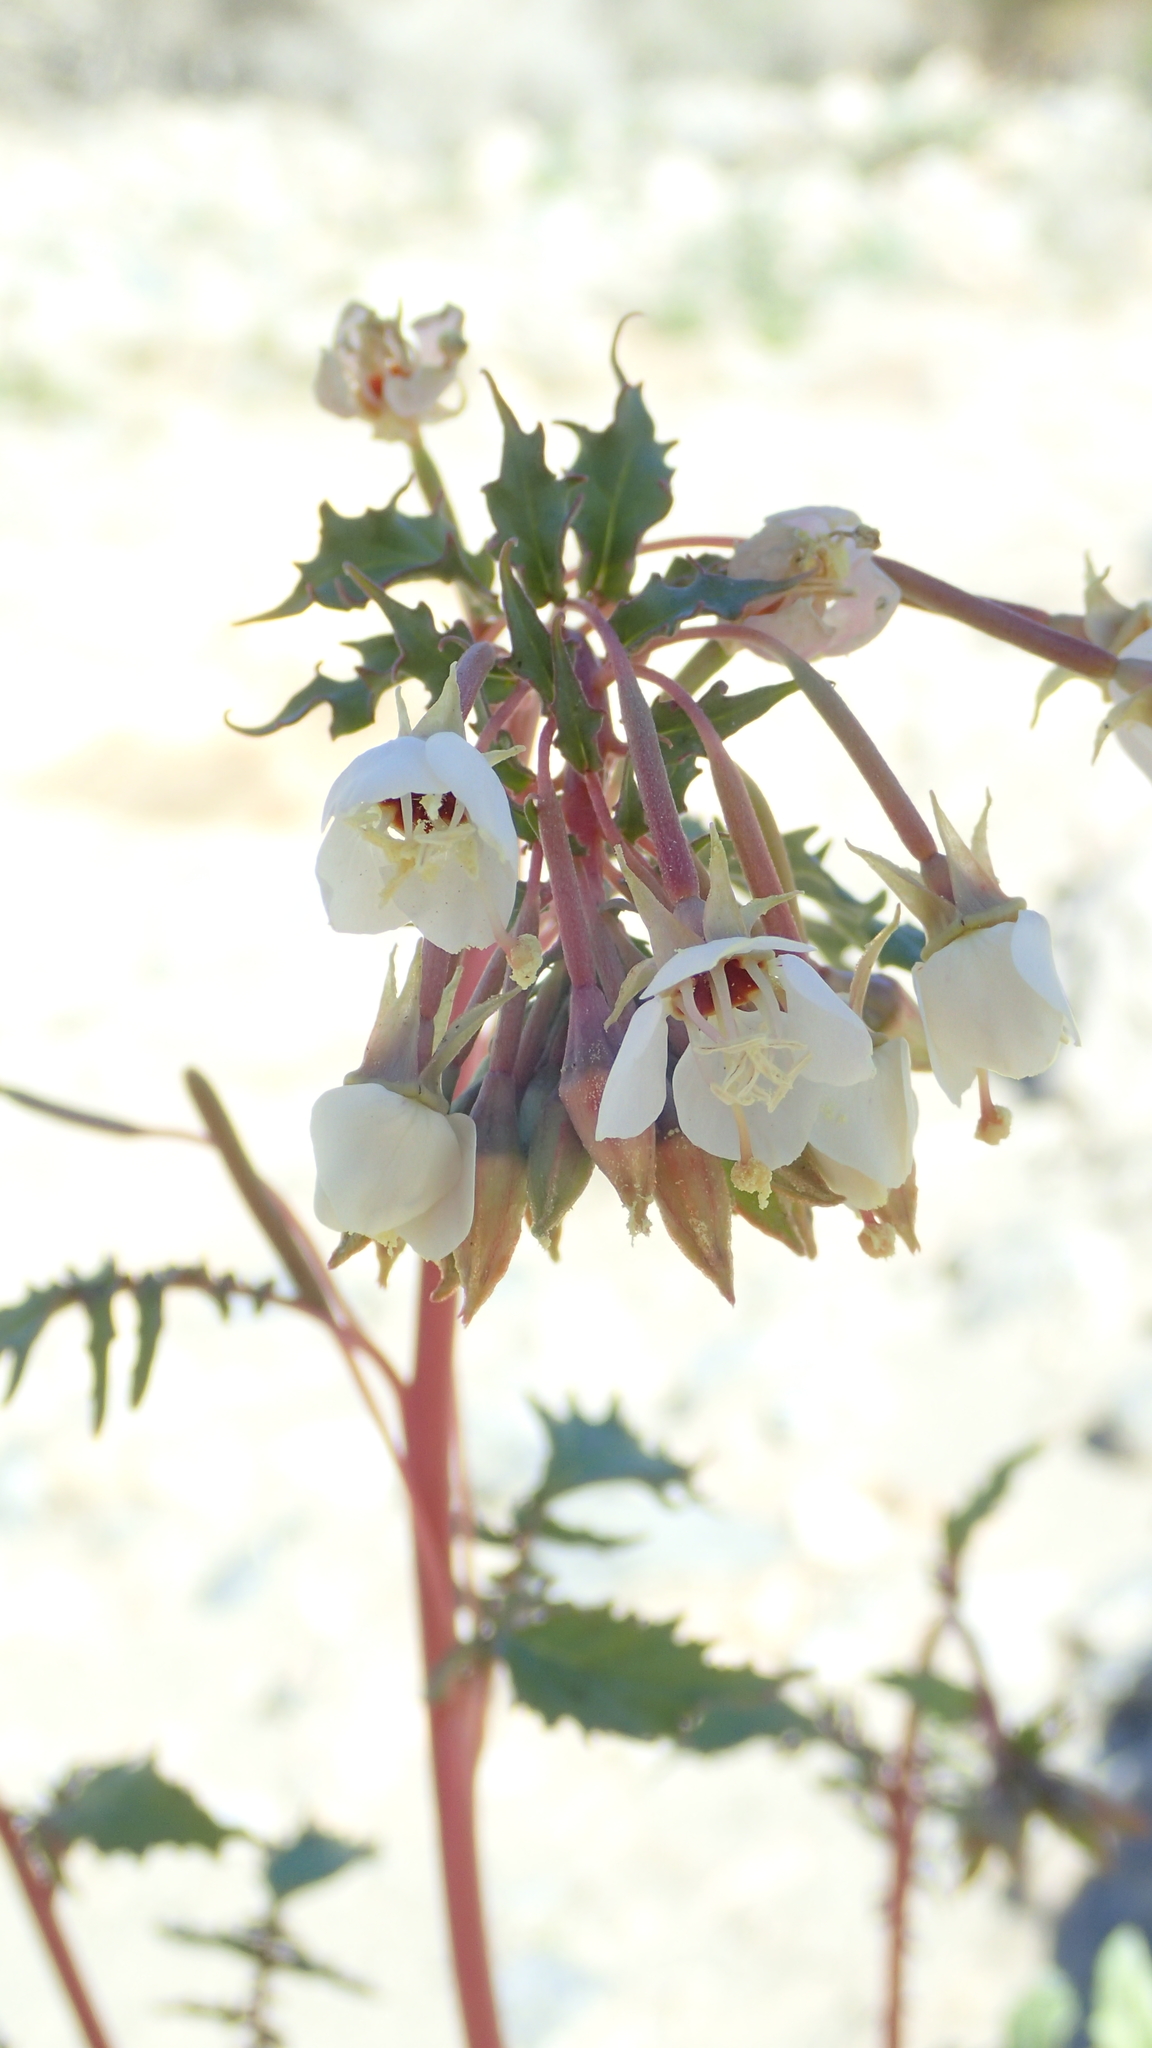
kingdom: Plantae
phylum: Tracheophyta
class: Magnoliopsida
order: Myrtales
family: Onagraceae
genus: Chylismia
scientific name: Chylismia claviformis
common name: Browneyes
